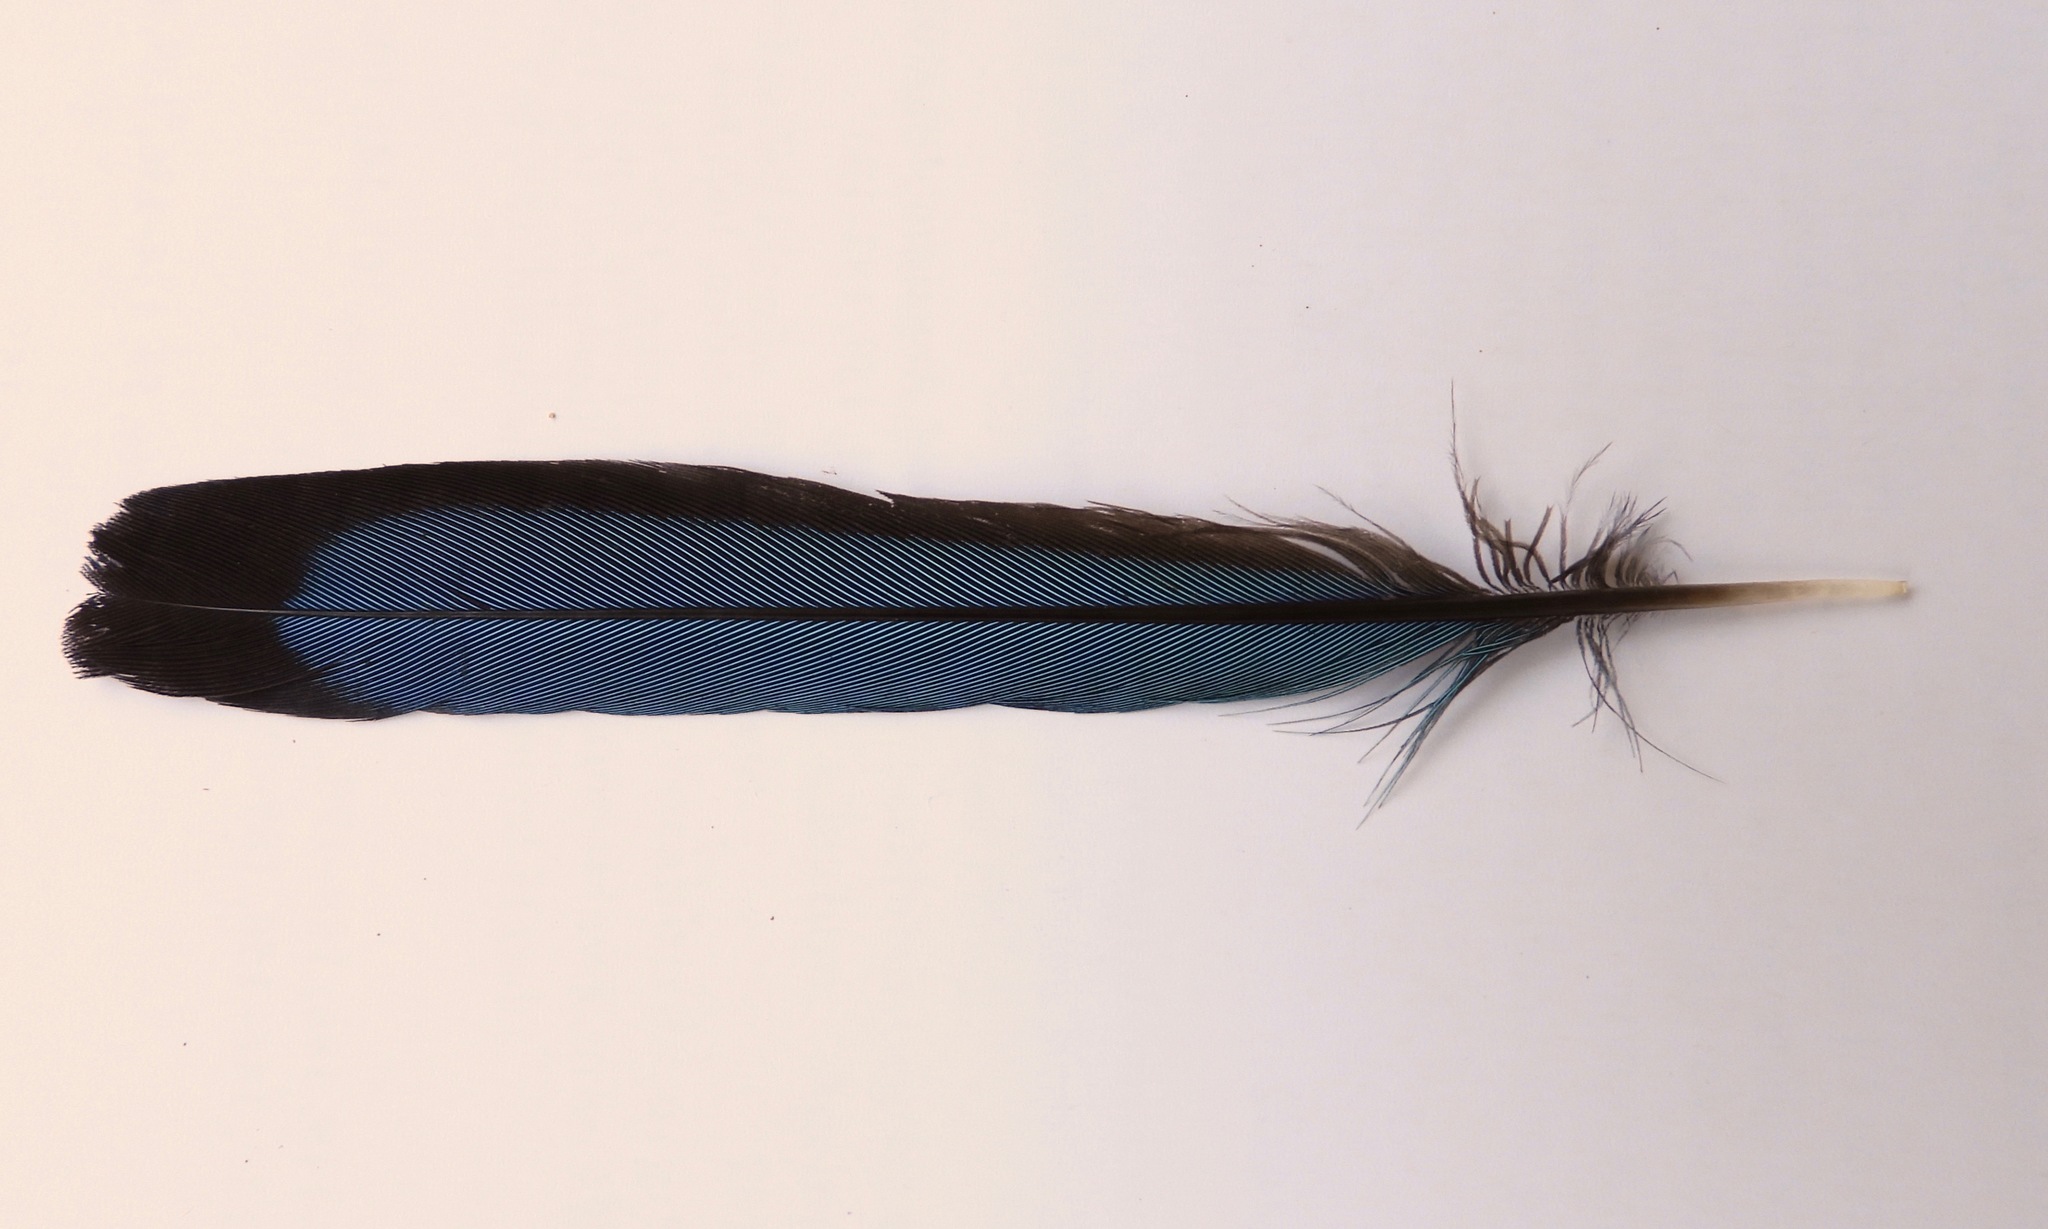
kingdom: Animalia
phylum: Chordata
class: Aves
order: Coraciiformes
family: Momotidae
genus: Eumomota
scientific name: Eumomota superciliosa
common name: Turquoise-browed motmot
